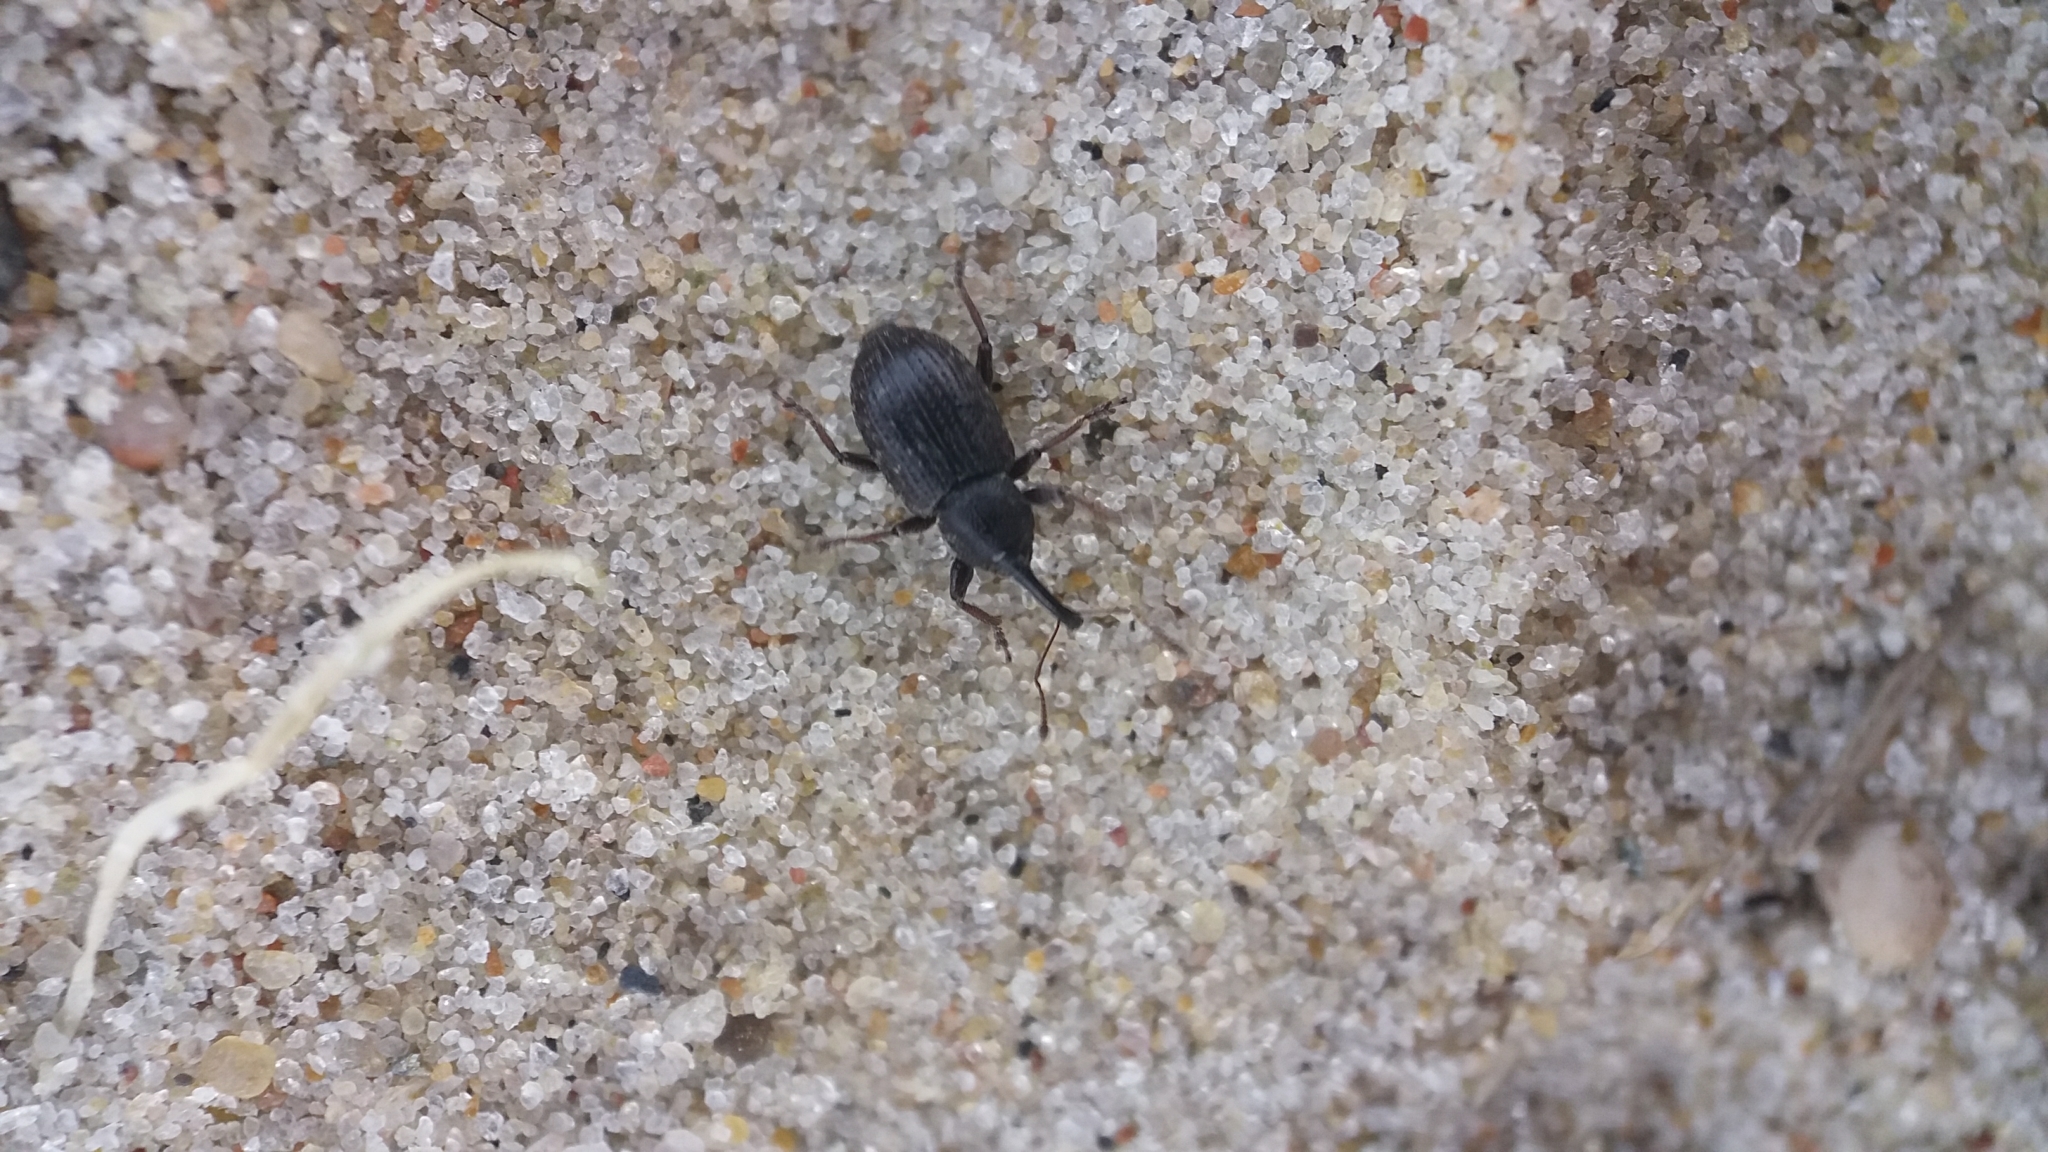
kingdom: Animalia
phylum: Arthropoda
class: Insecta
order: Coleoptera
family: Brachyceridae
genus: Notaris
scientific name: Notaris acridulus
